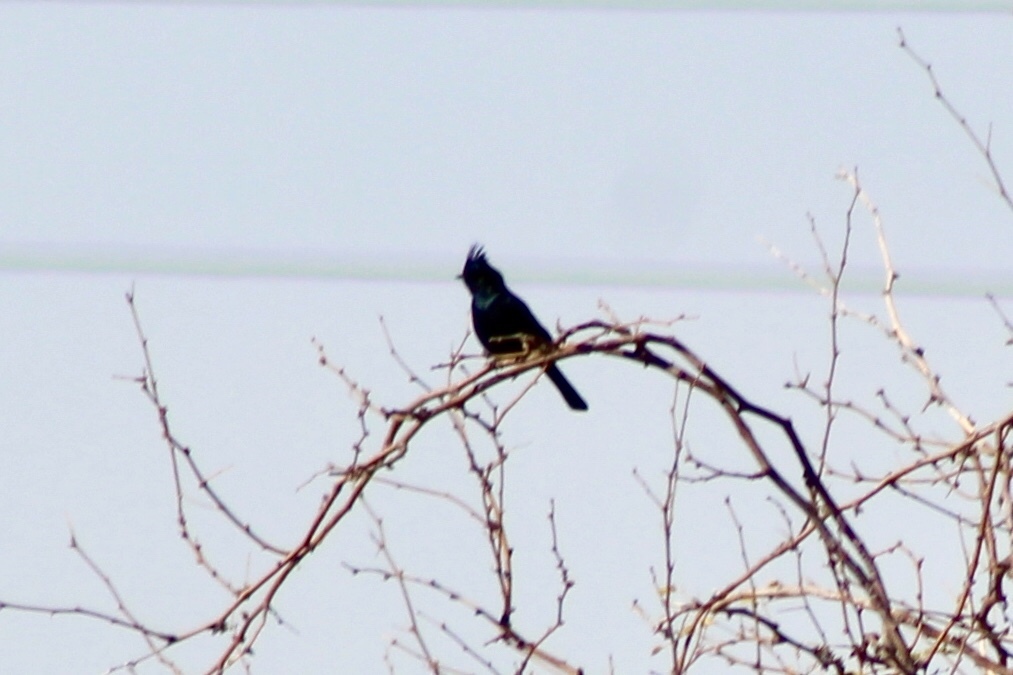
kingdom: Animalia
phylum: Chordata
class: Aves
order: Passeriformes
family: Ptilogonatidae
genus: Phainopepla
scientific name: Phainopepla nitens
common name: Phainopepla
